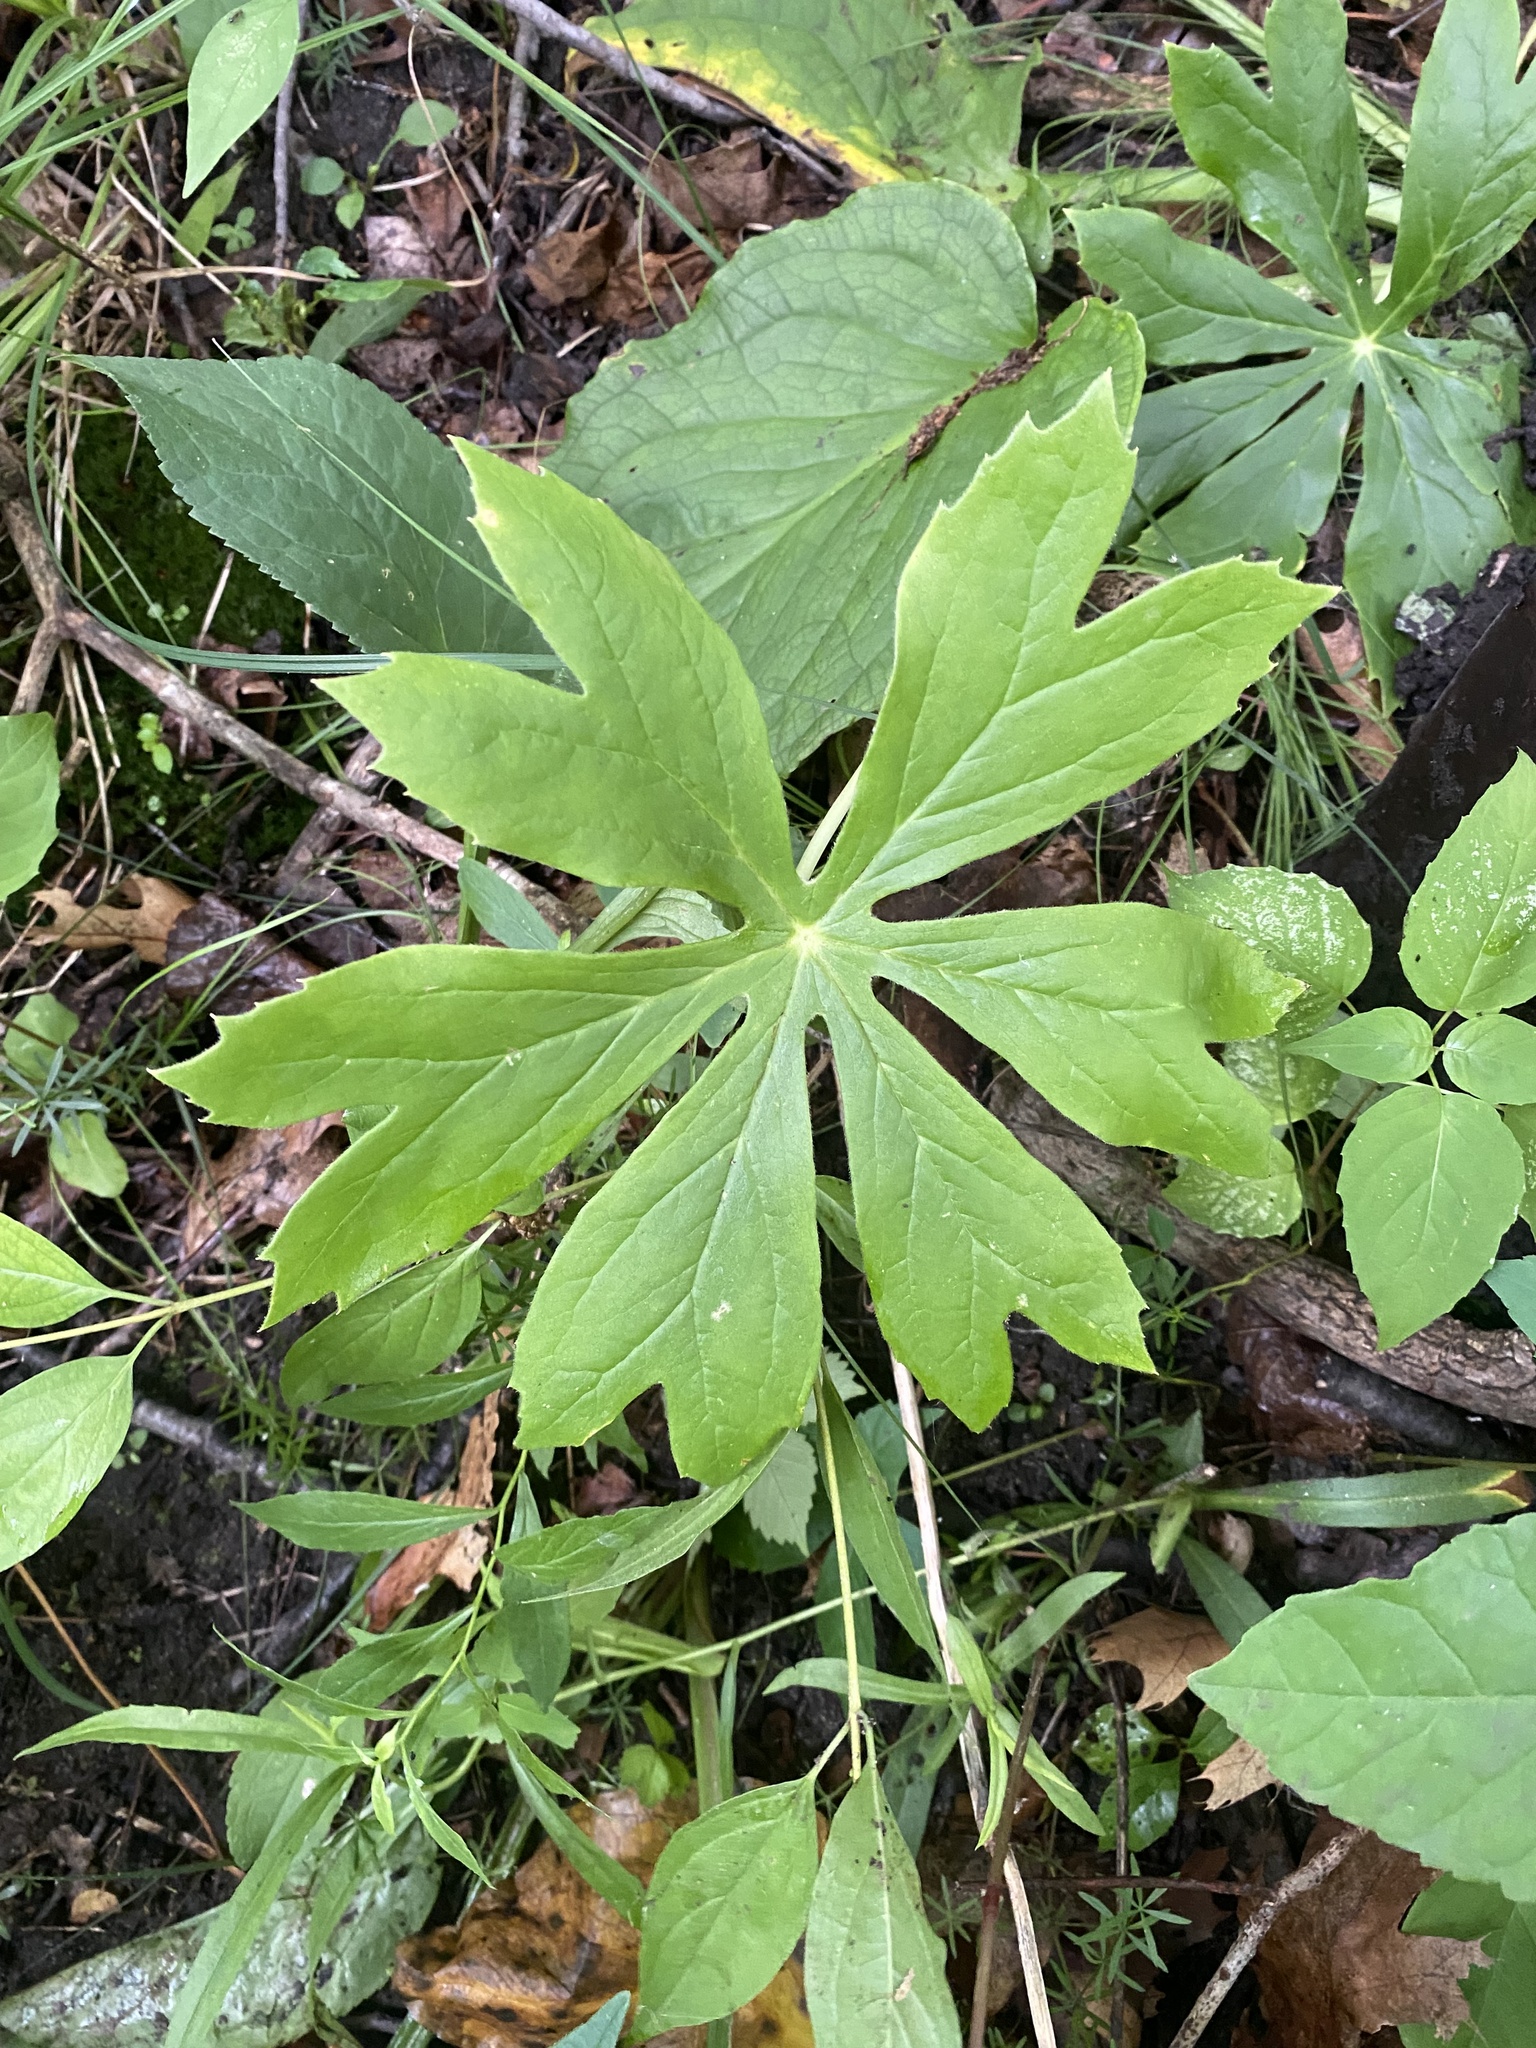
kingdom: Plantae
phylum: Tracheophyta
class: Magnoliopsida
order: Ranunculales
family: Berberidaceae
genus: Podophyllum
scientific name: Podophyllum peltatum
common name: Wild mandrake
